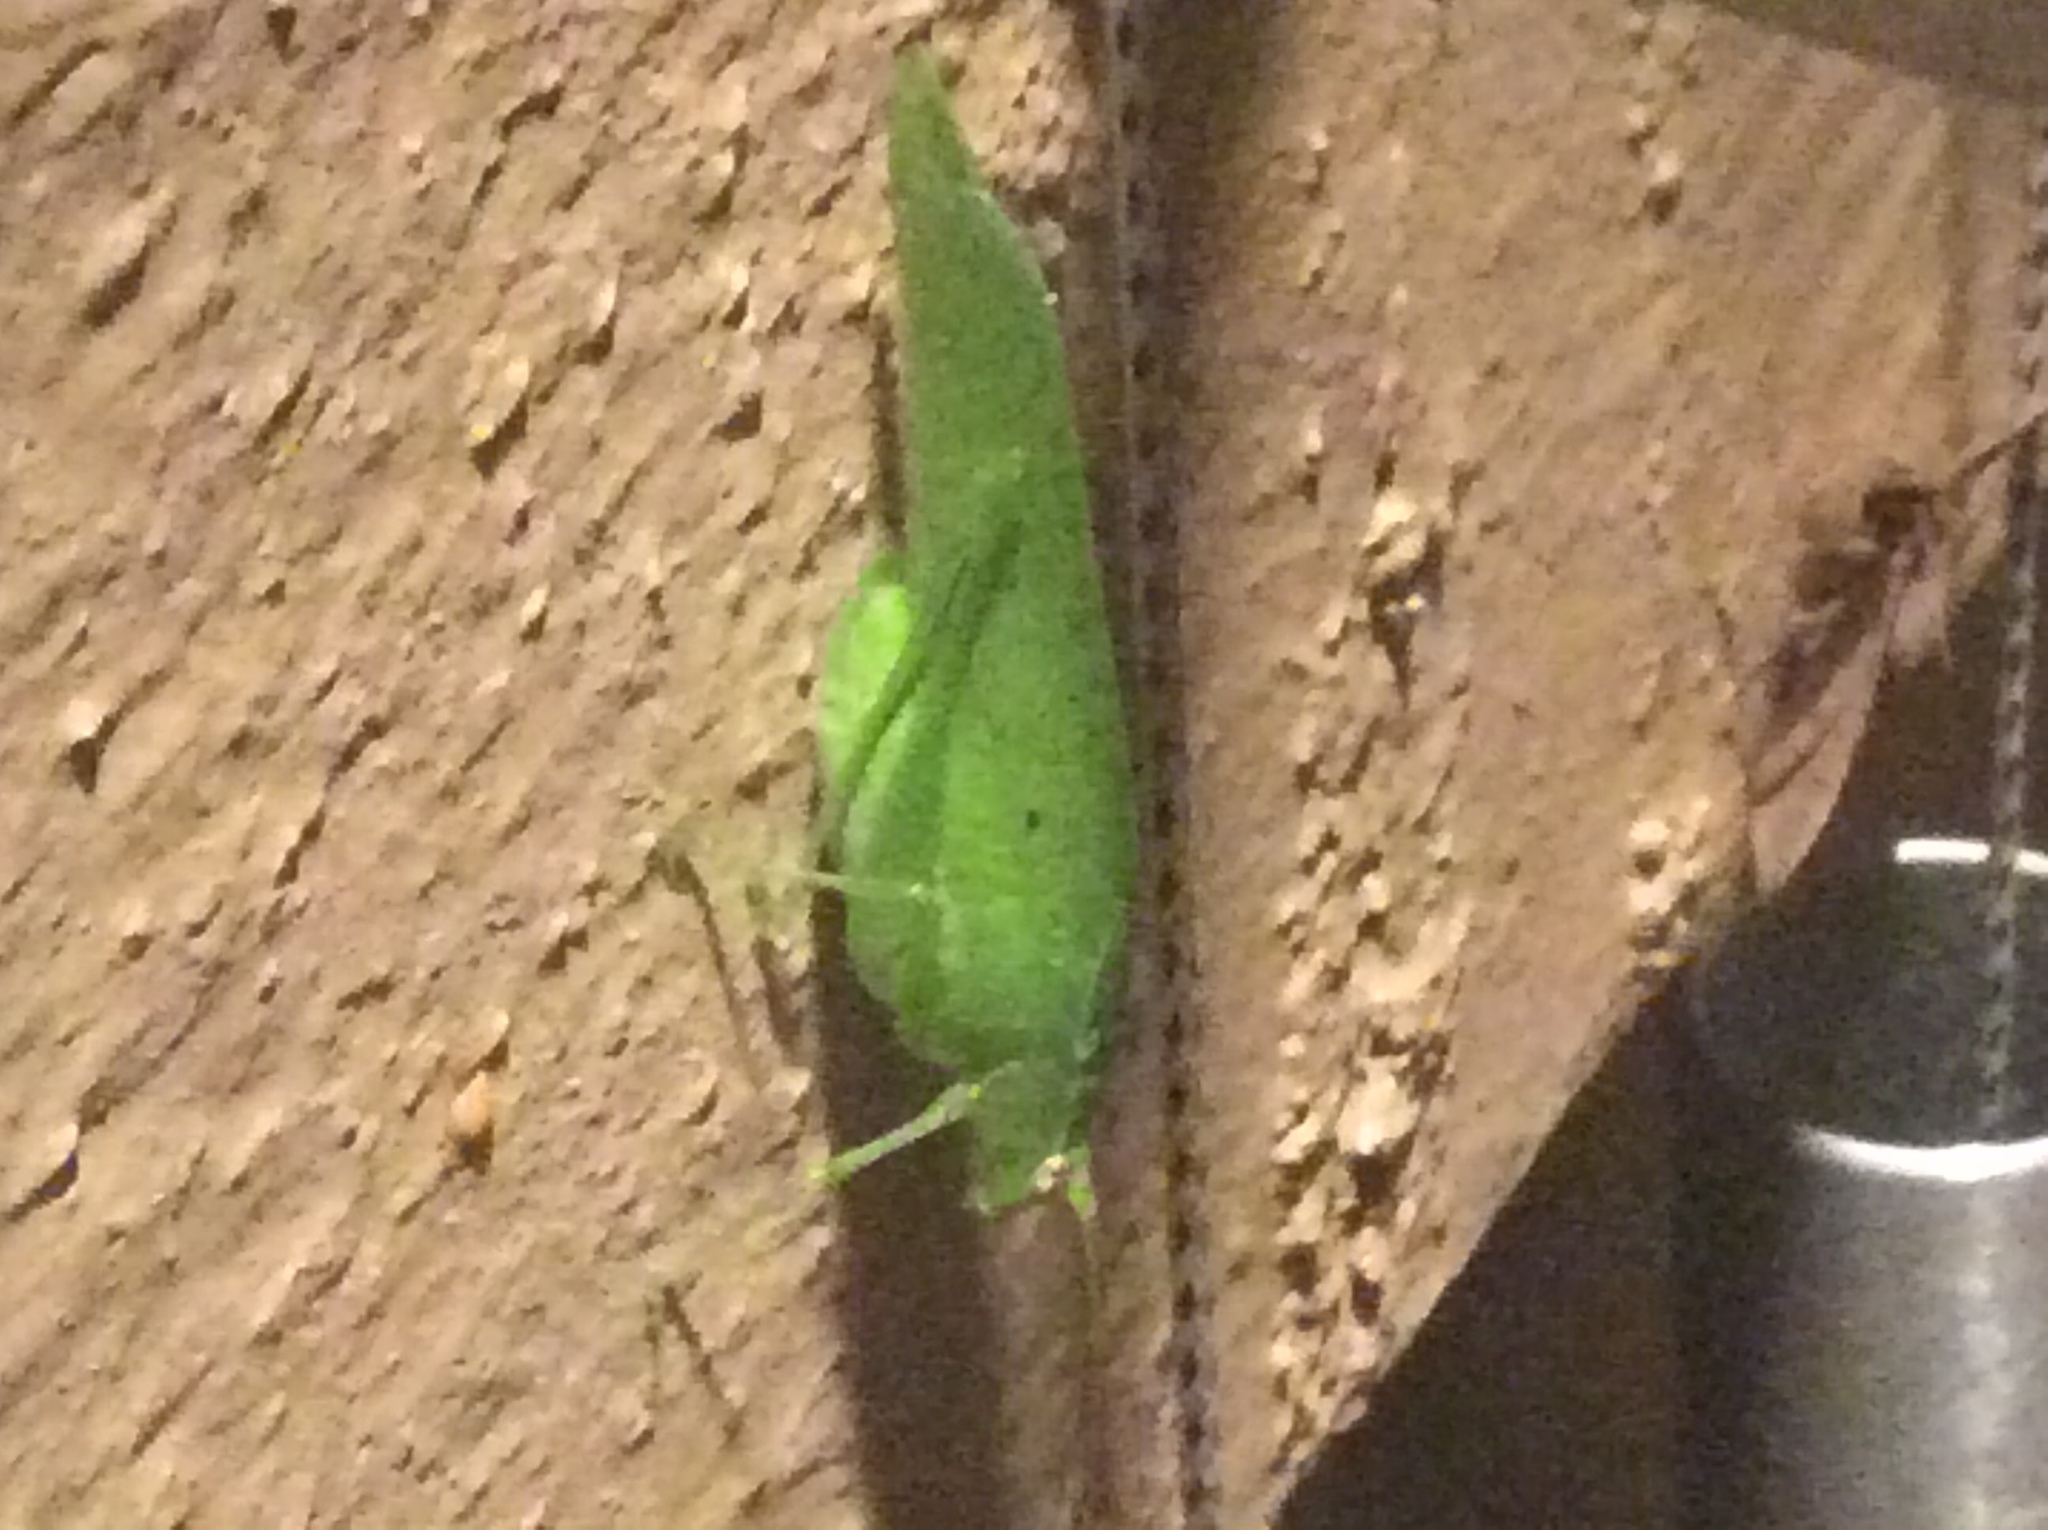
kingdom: Animalia
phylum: Arthropoda
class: Insecta
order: Orthoptera
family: Tettigoniidae
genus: Montezumina
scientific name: Montezumina modesta
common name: Modest katydid
